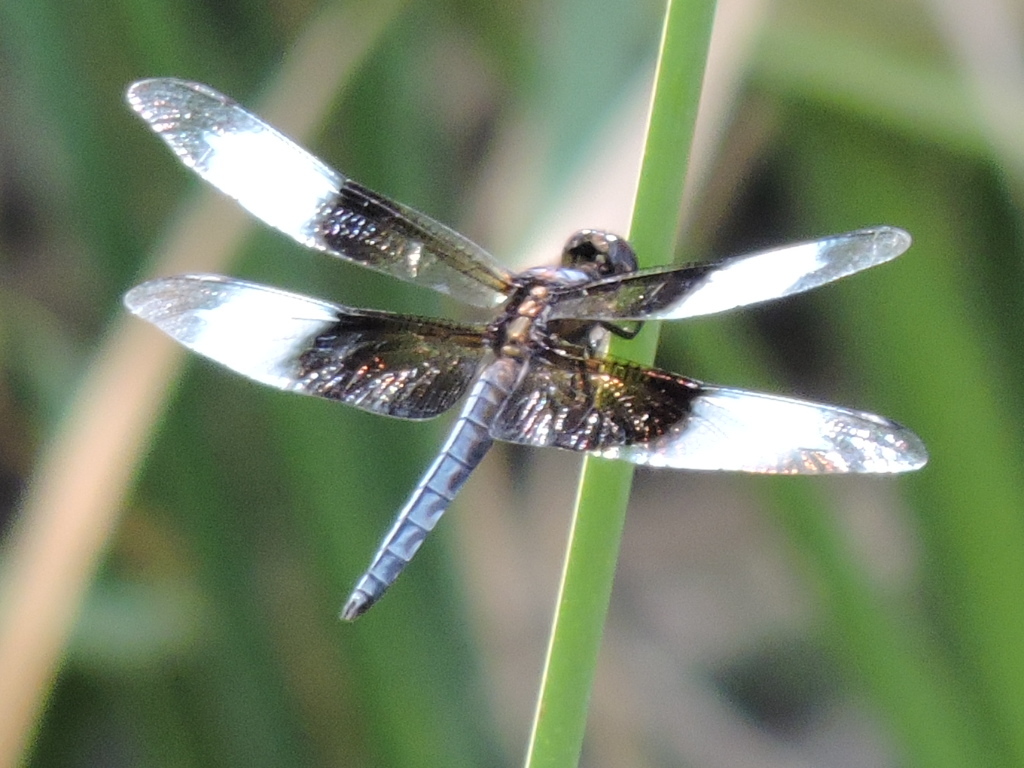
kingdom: Animalia
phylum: Arthropoda
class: Insecta
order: Odonata
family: Libellulidae
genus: Libellula
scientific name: Libellula luctuosa
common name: Widow skimmer
